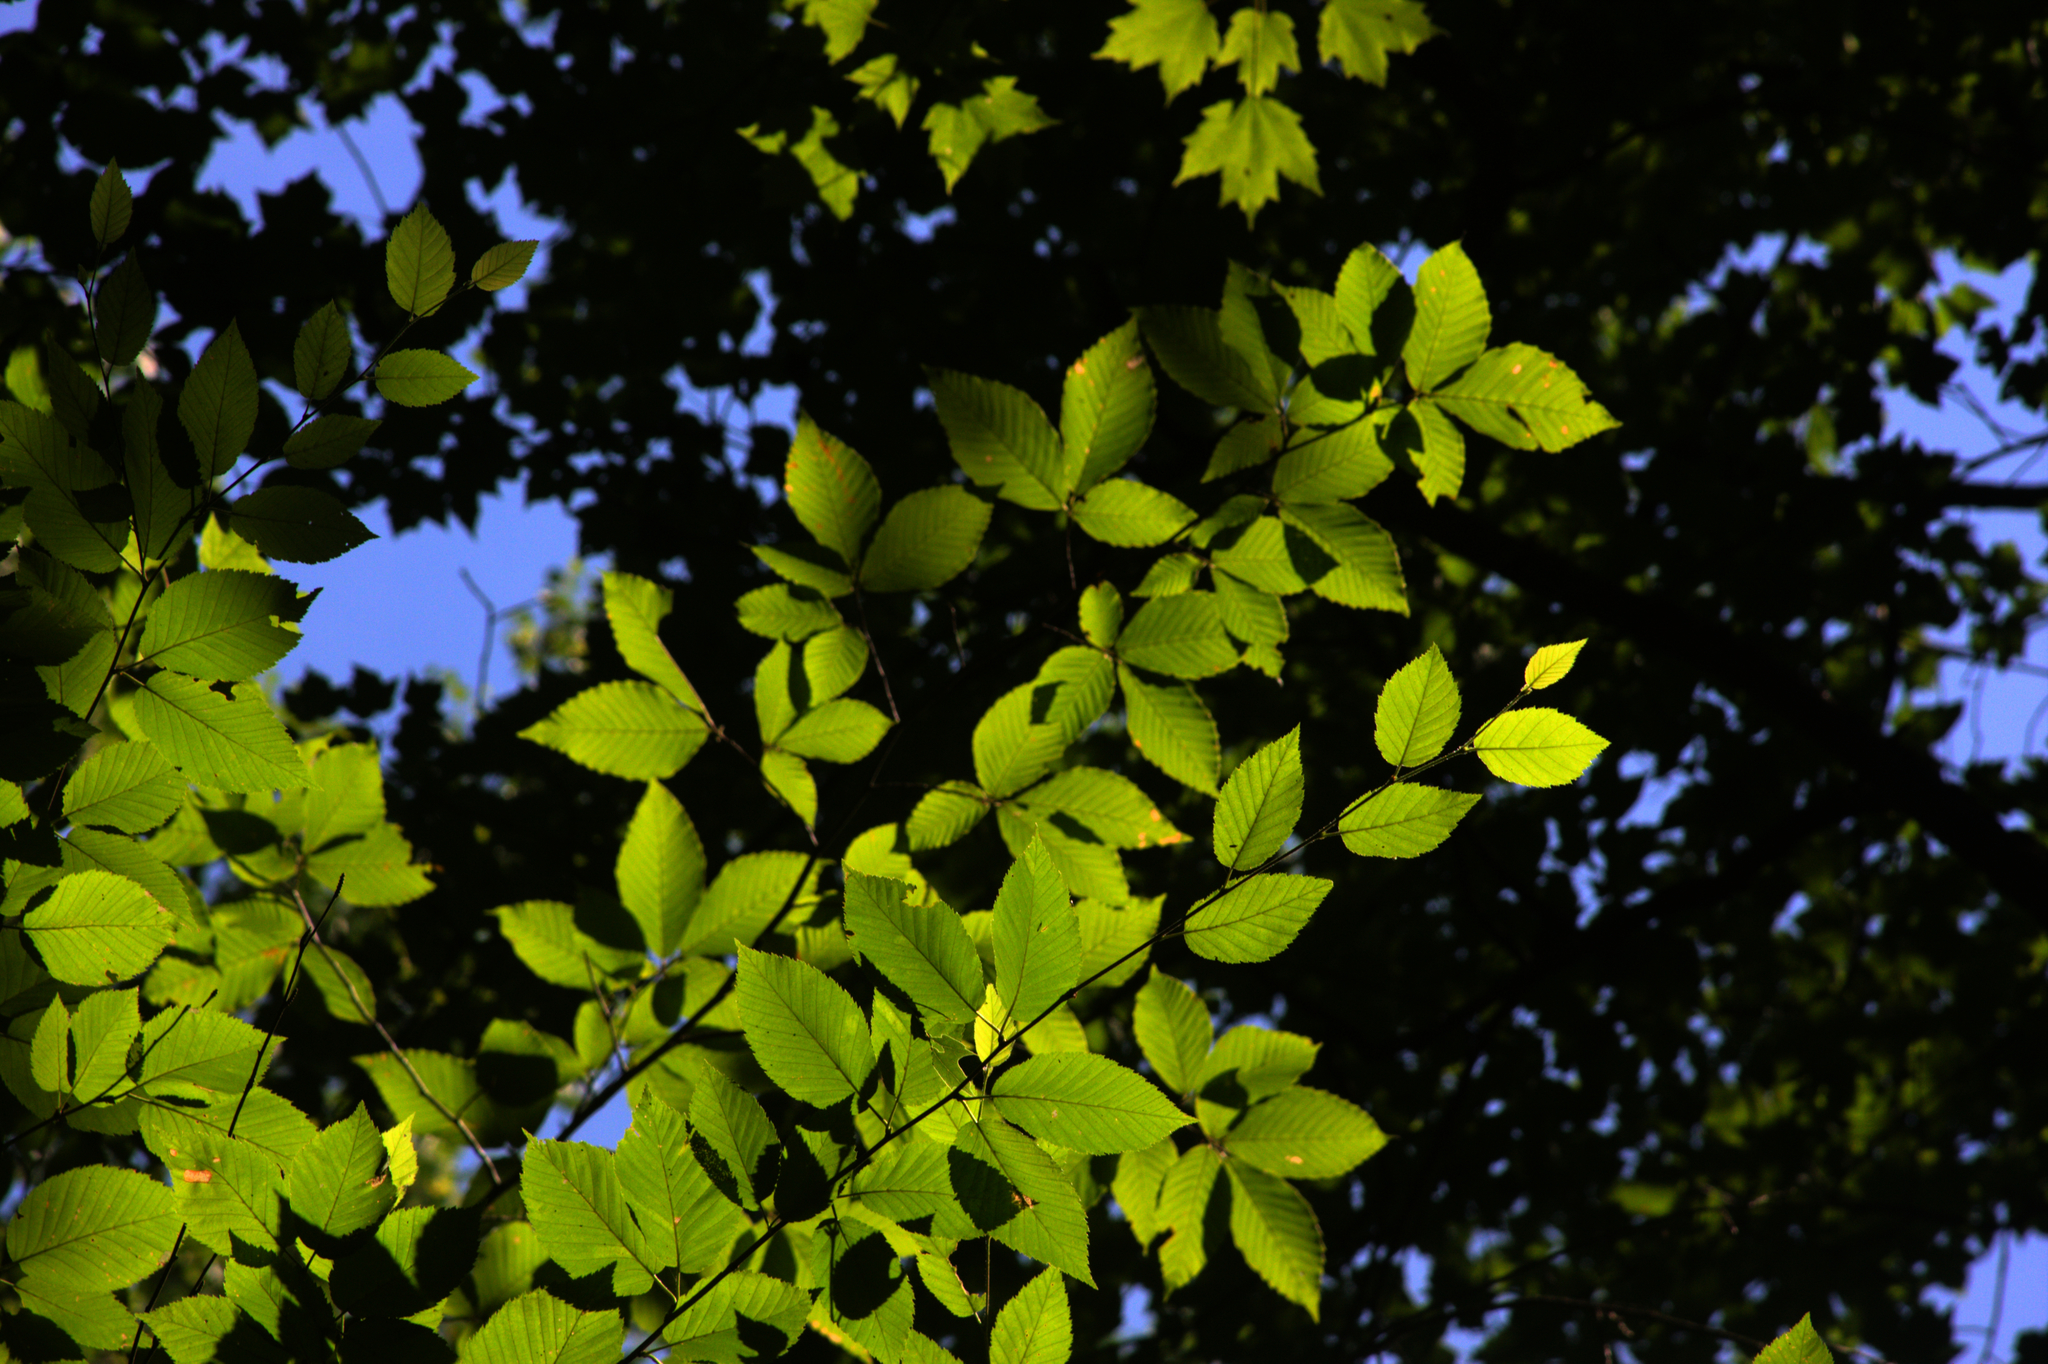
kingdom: Plantae
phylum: Tracheophyta
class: Magnoliopsida
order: Fagales
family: Betulaceae
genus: Betula
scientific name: Betula alleghaniensis
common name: Yellow birch
